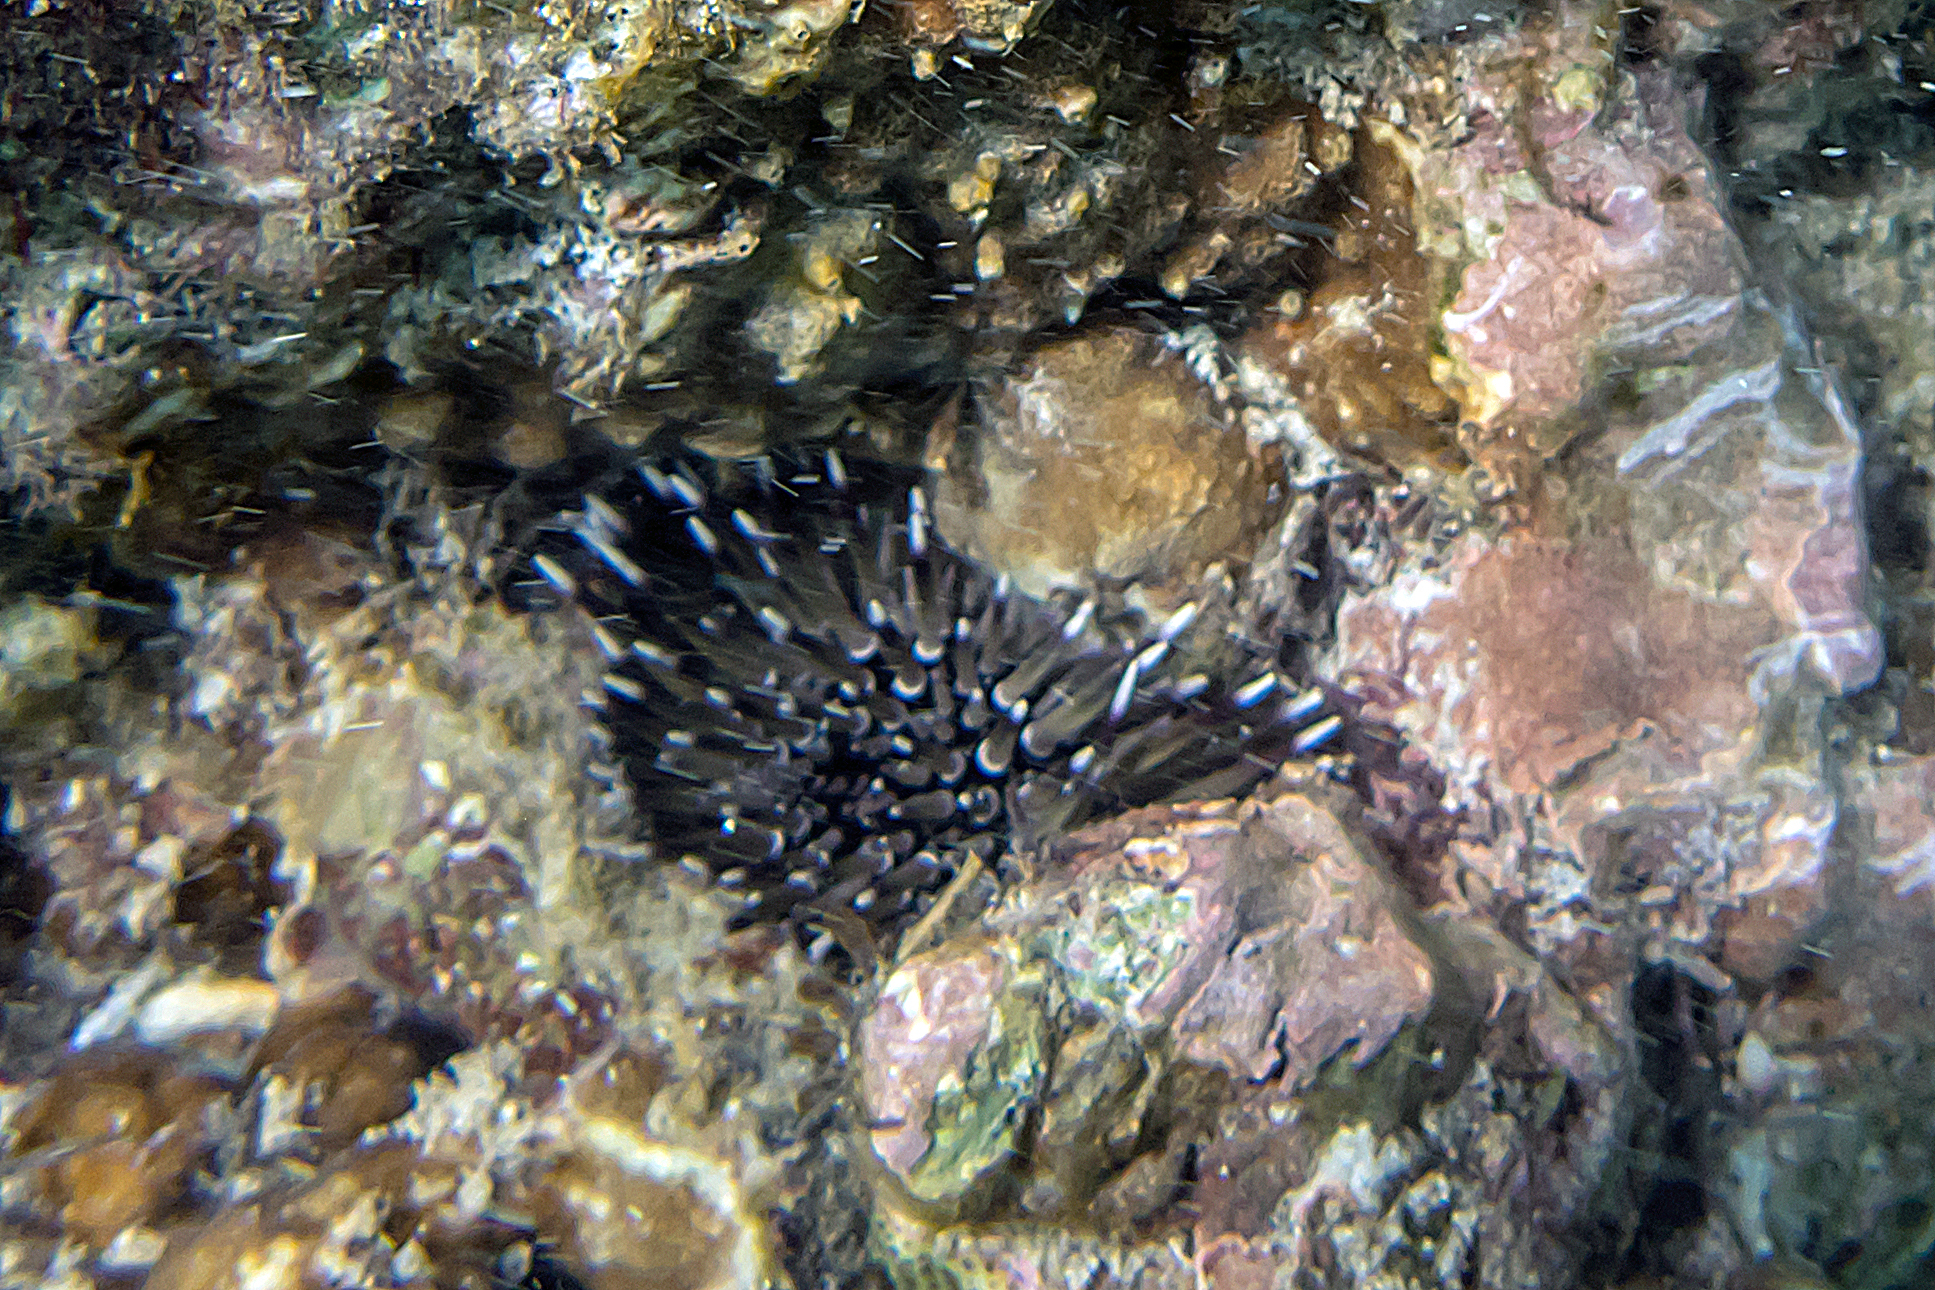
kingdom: Animalia
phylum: Echinodermata
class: Echinoidea
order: Camarodonta
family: Echinometridae
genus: Echinometra
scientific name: Echinometra mathaei
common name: Rock-boring urchin
